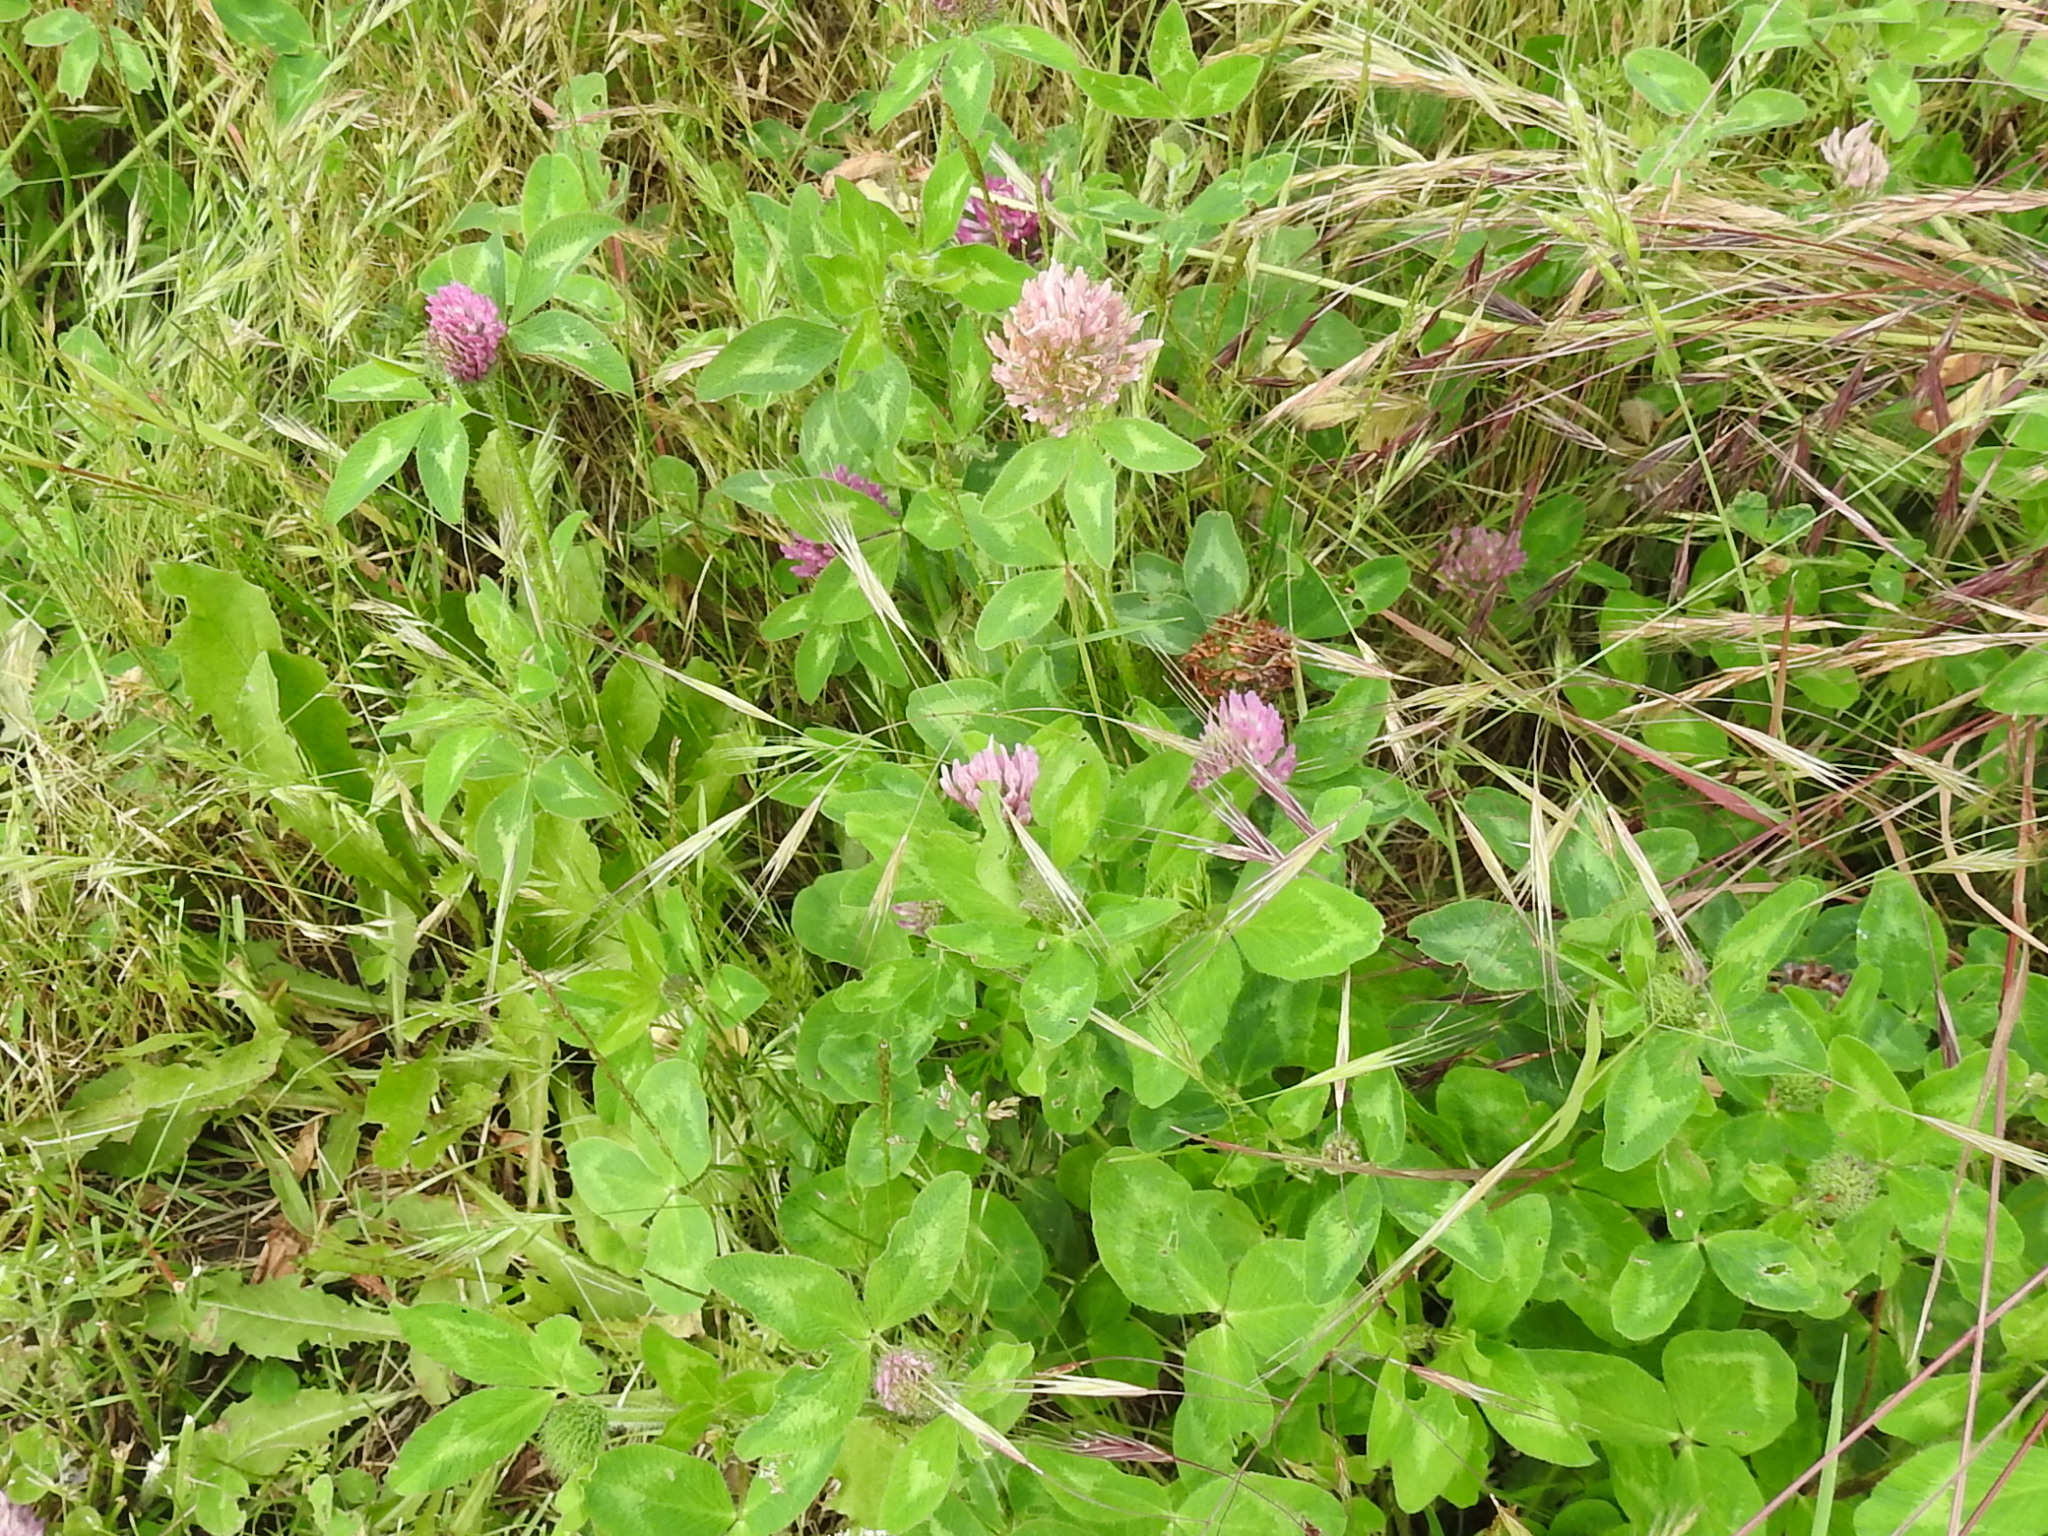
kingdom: Plantae
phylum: Tracheophyta
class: Magnoliopsida
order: Fabales
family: Fabaceae
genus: Trifolium
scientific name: Trifolium pratense
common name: Red clover
